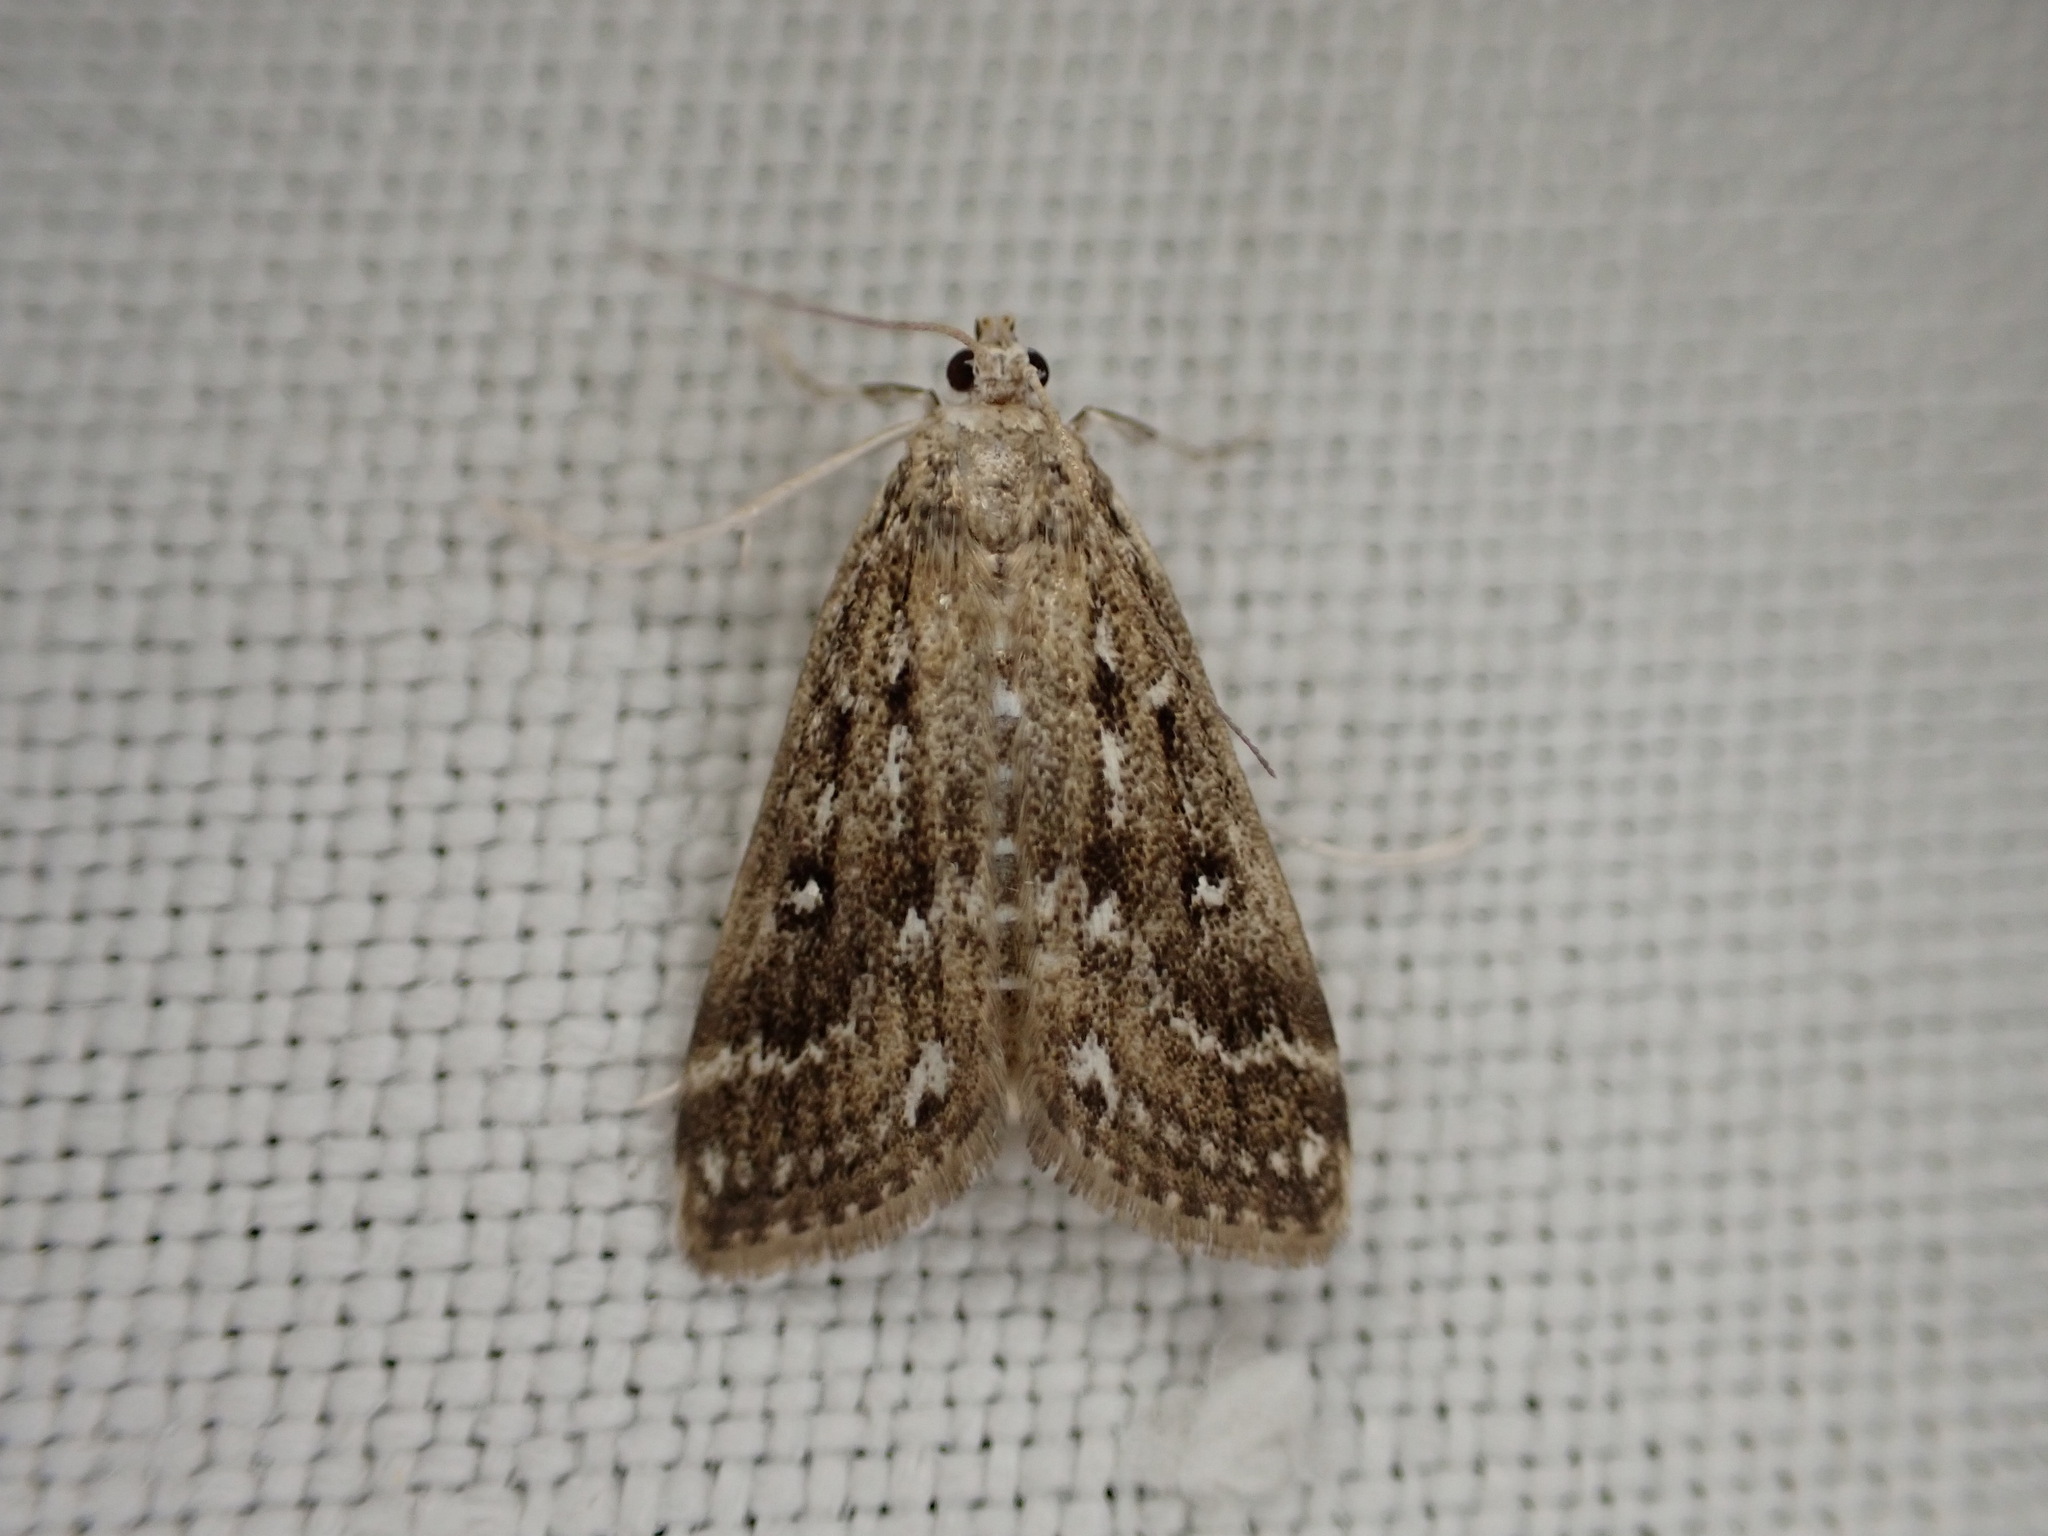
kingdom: Animalia
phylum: Arthropoda
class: Insecta
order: Lepidoptera
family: Crambidae
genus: Parapoynx
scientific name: Parapoynx stratiotata
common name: Ringed china-mark
